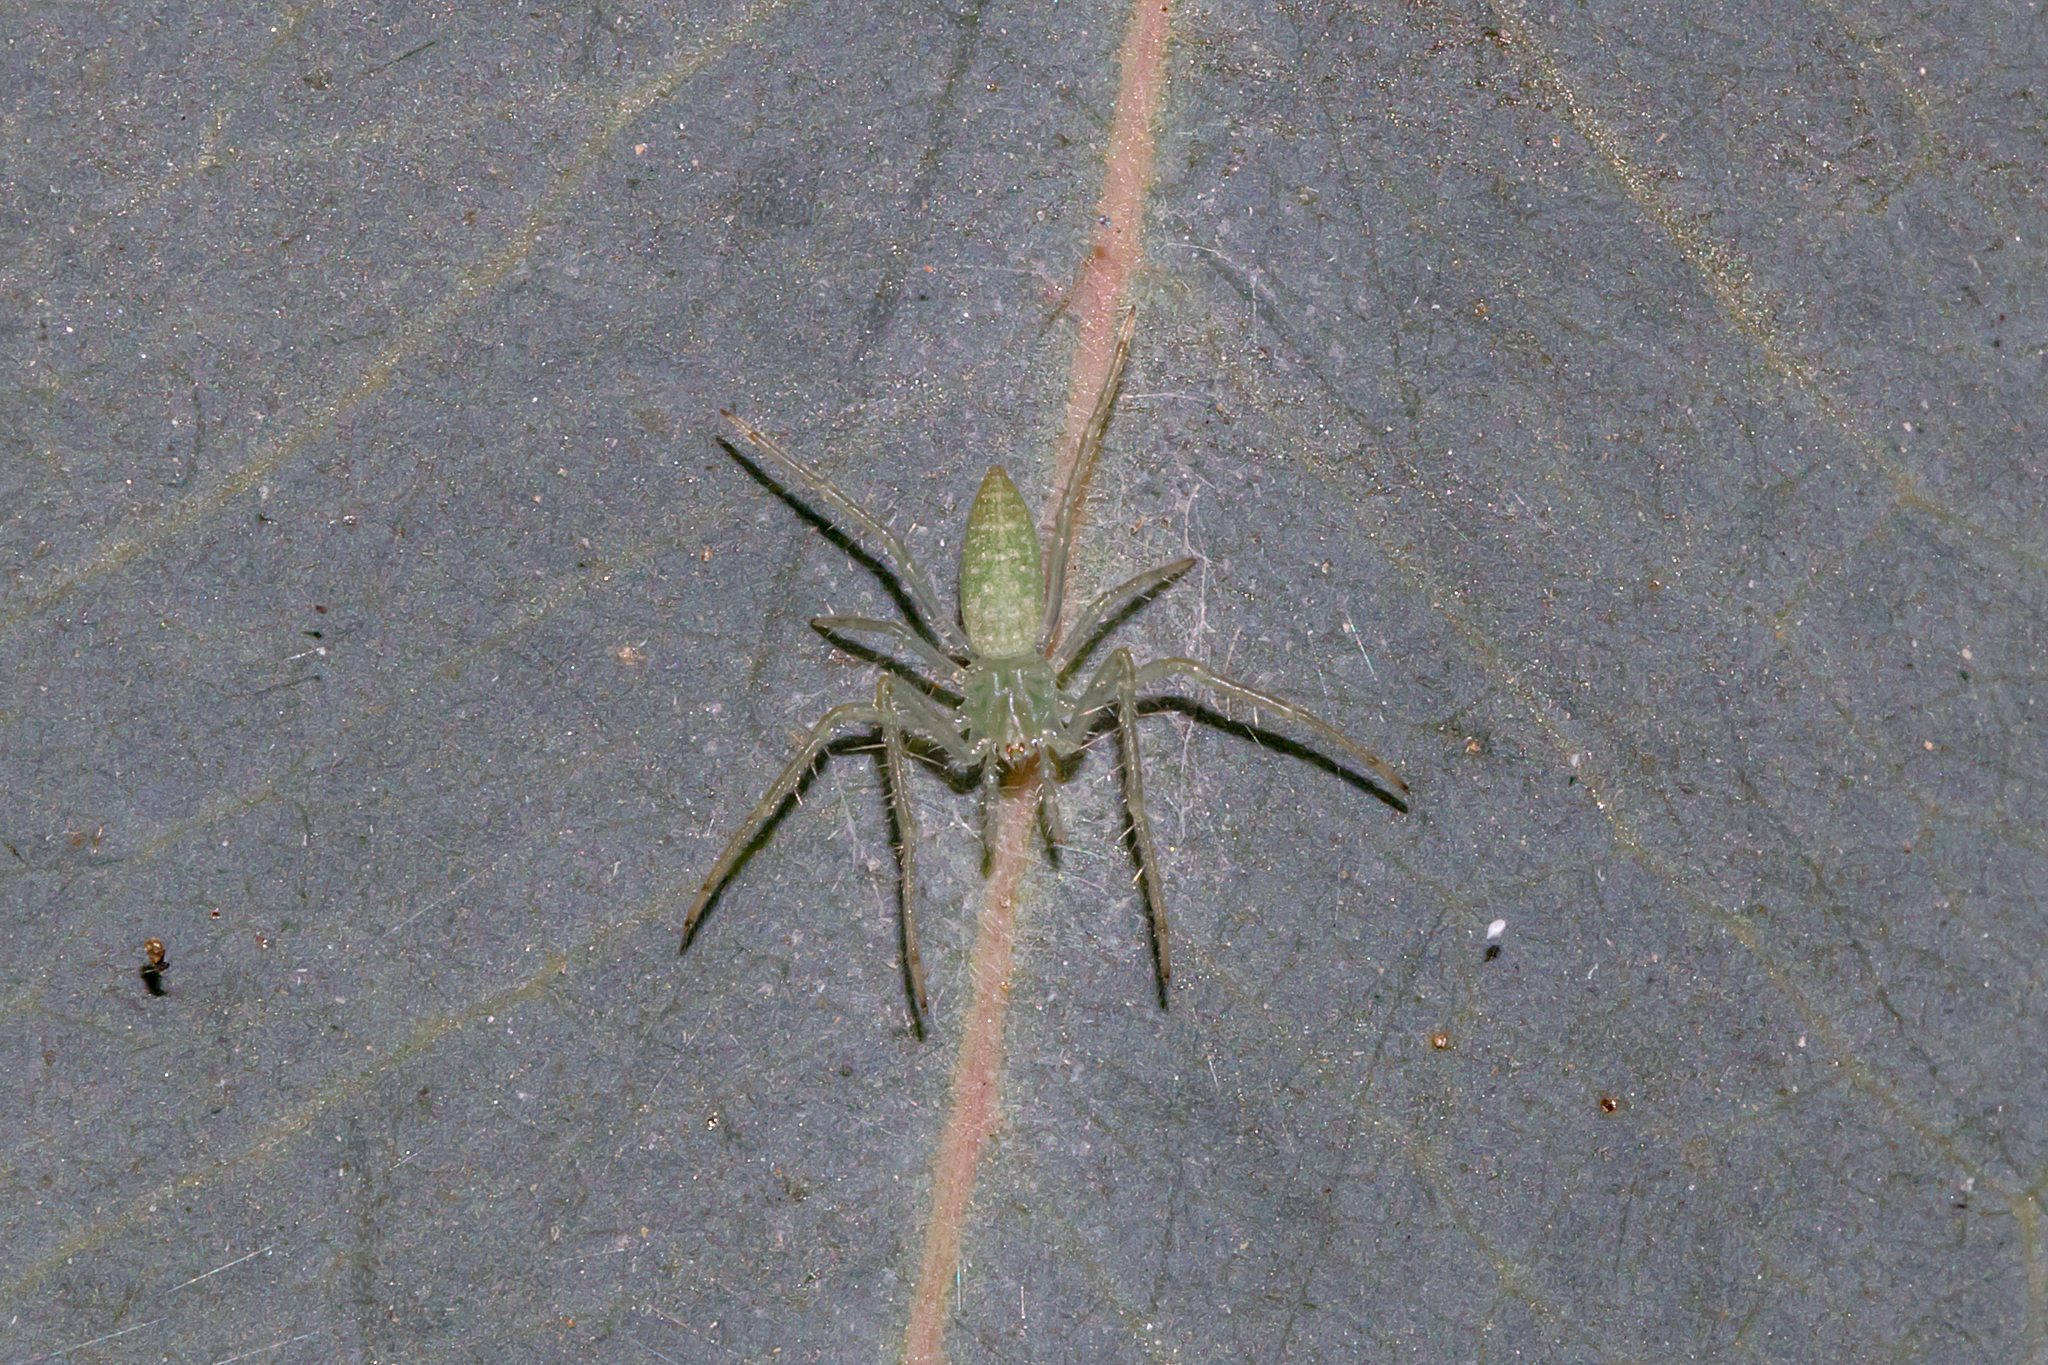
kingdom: Animalia
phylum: Arthropoda
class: Arachnida
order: Araneae
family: Araneidae
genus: Araneus
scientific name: Araneus talipedatus
